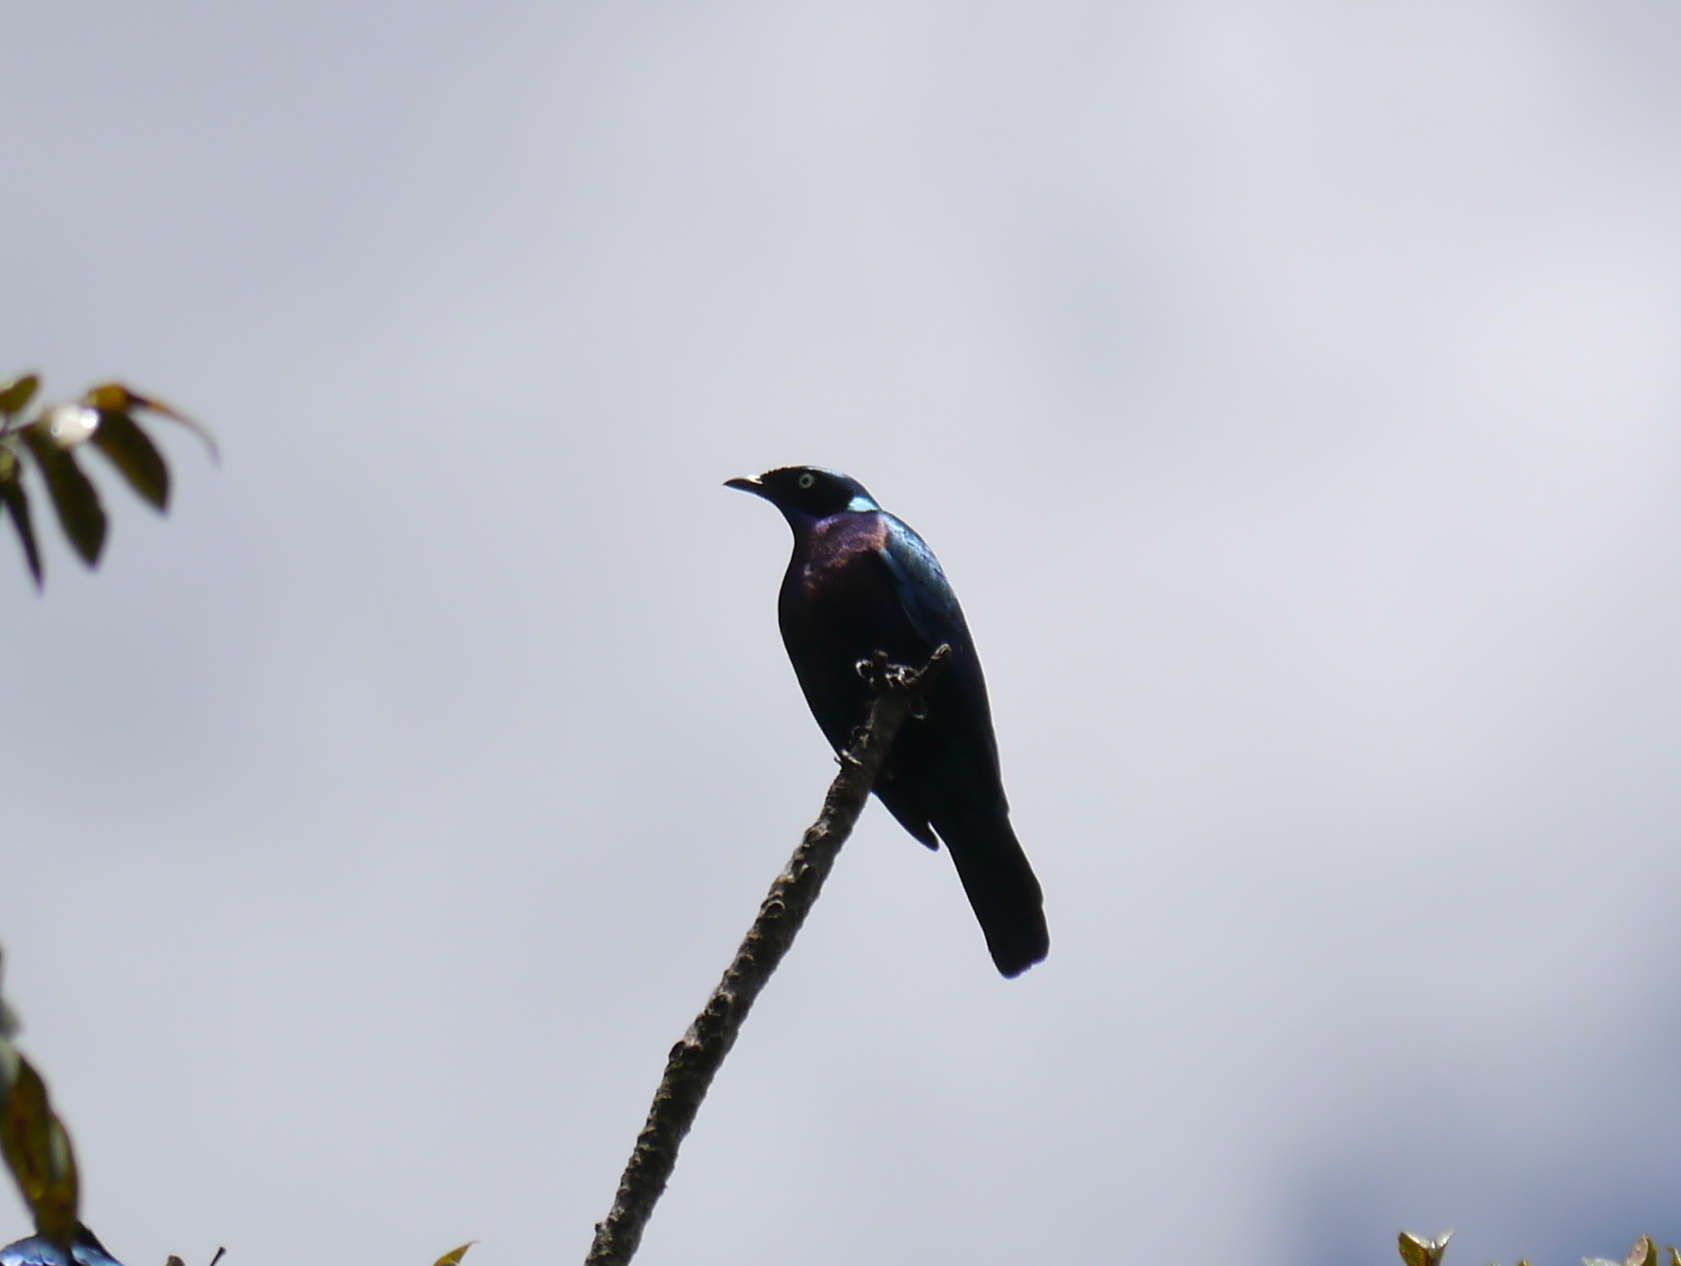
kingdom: Animalia
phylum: Chordata
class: Aves
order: Passeriformes
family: Sturnidae
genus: Lamprotornis
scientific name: Lamprotornis splendidus
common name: Splendid starling
